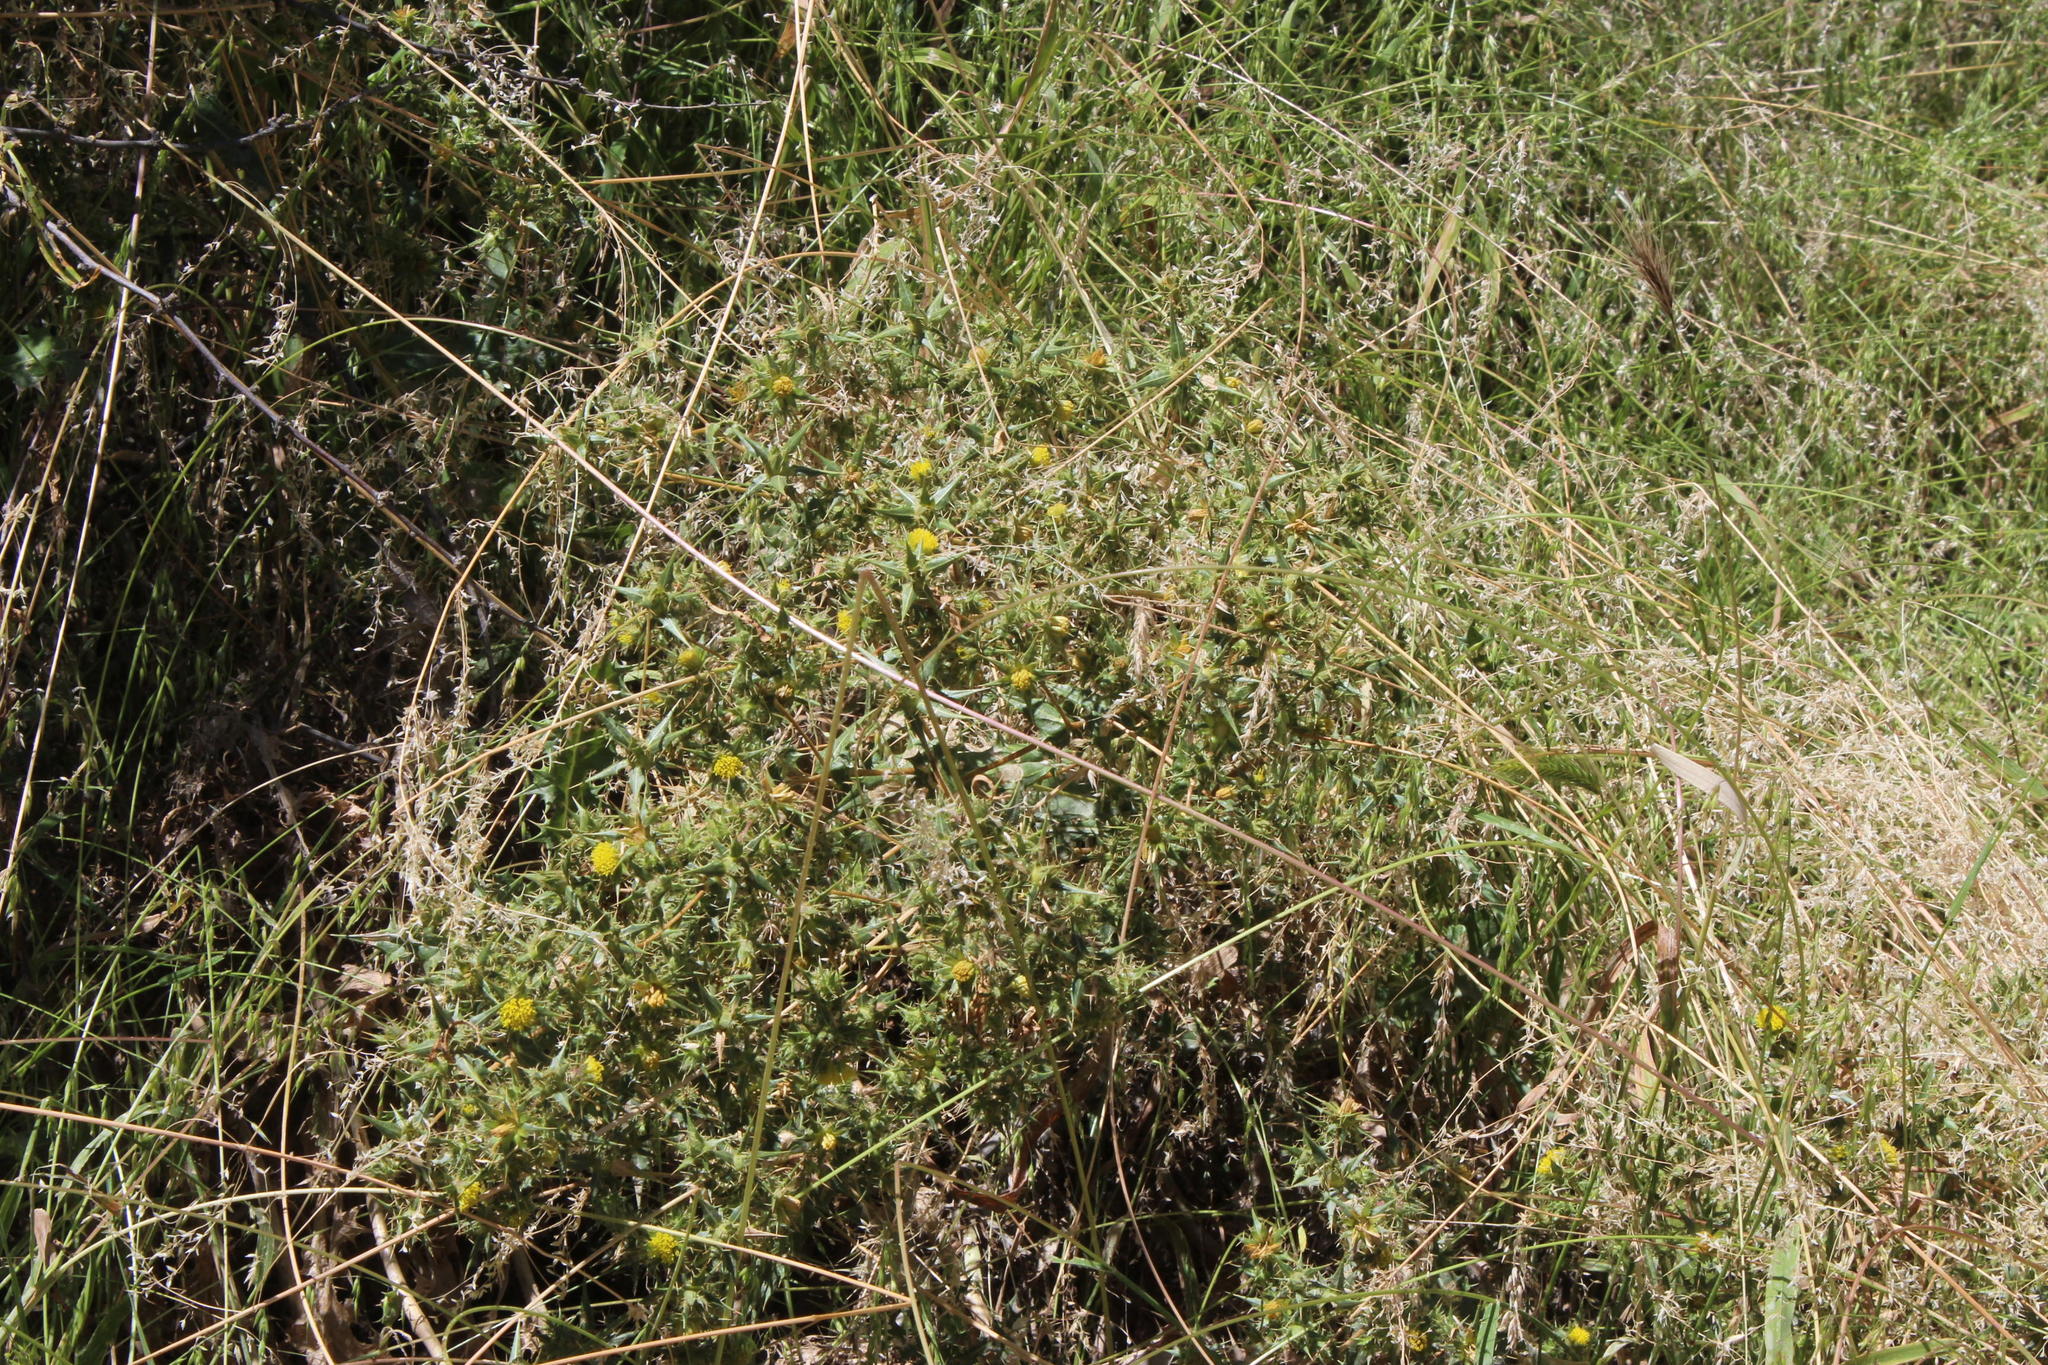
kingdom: Plantae
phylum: Tracheophyta
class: Magnoliopsida
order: Asterales
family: Asteraceae
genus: Berkheya
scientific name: Berkheya carlinifolia
